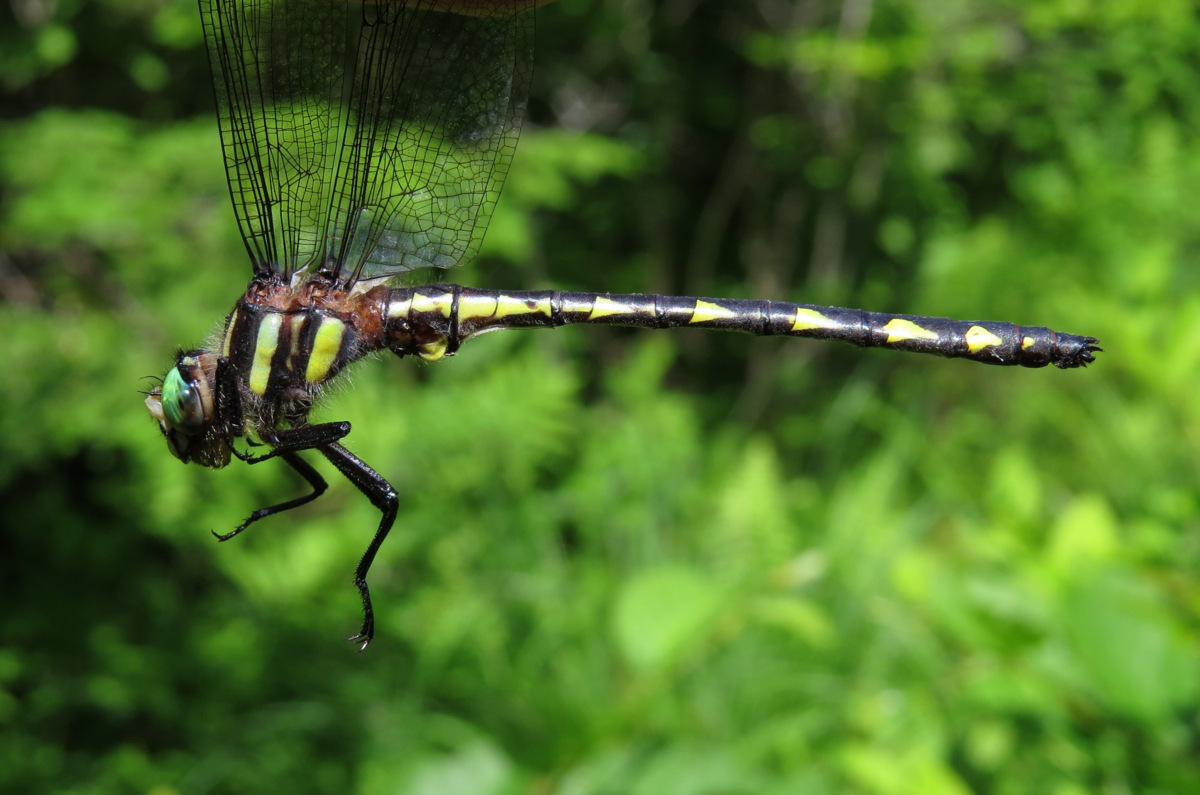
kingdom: Animalia
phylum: Arthropoda
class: Insecta
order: Odonata
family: Cordulegastridae
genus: Cordulegaster
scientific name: Cordulegaster diastatops
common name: Delta-spotted spiketail
